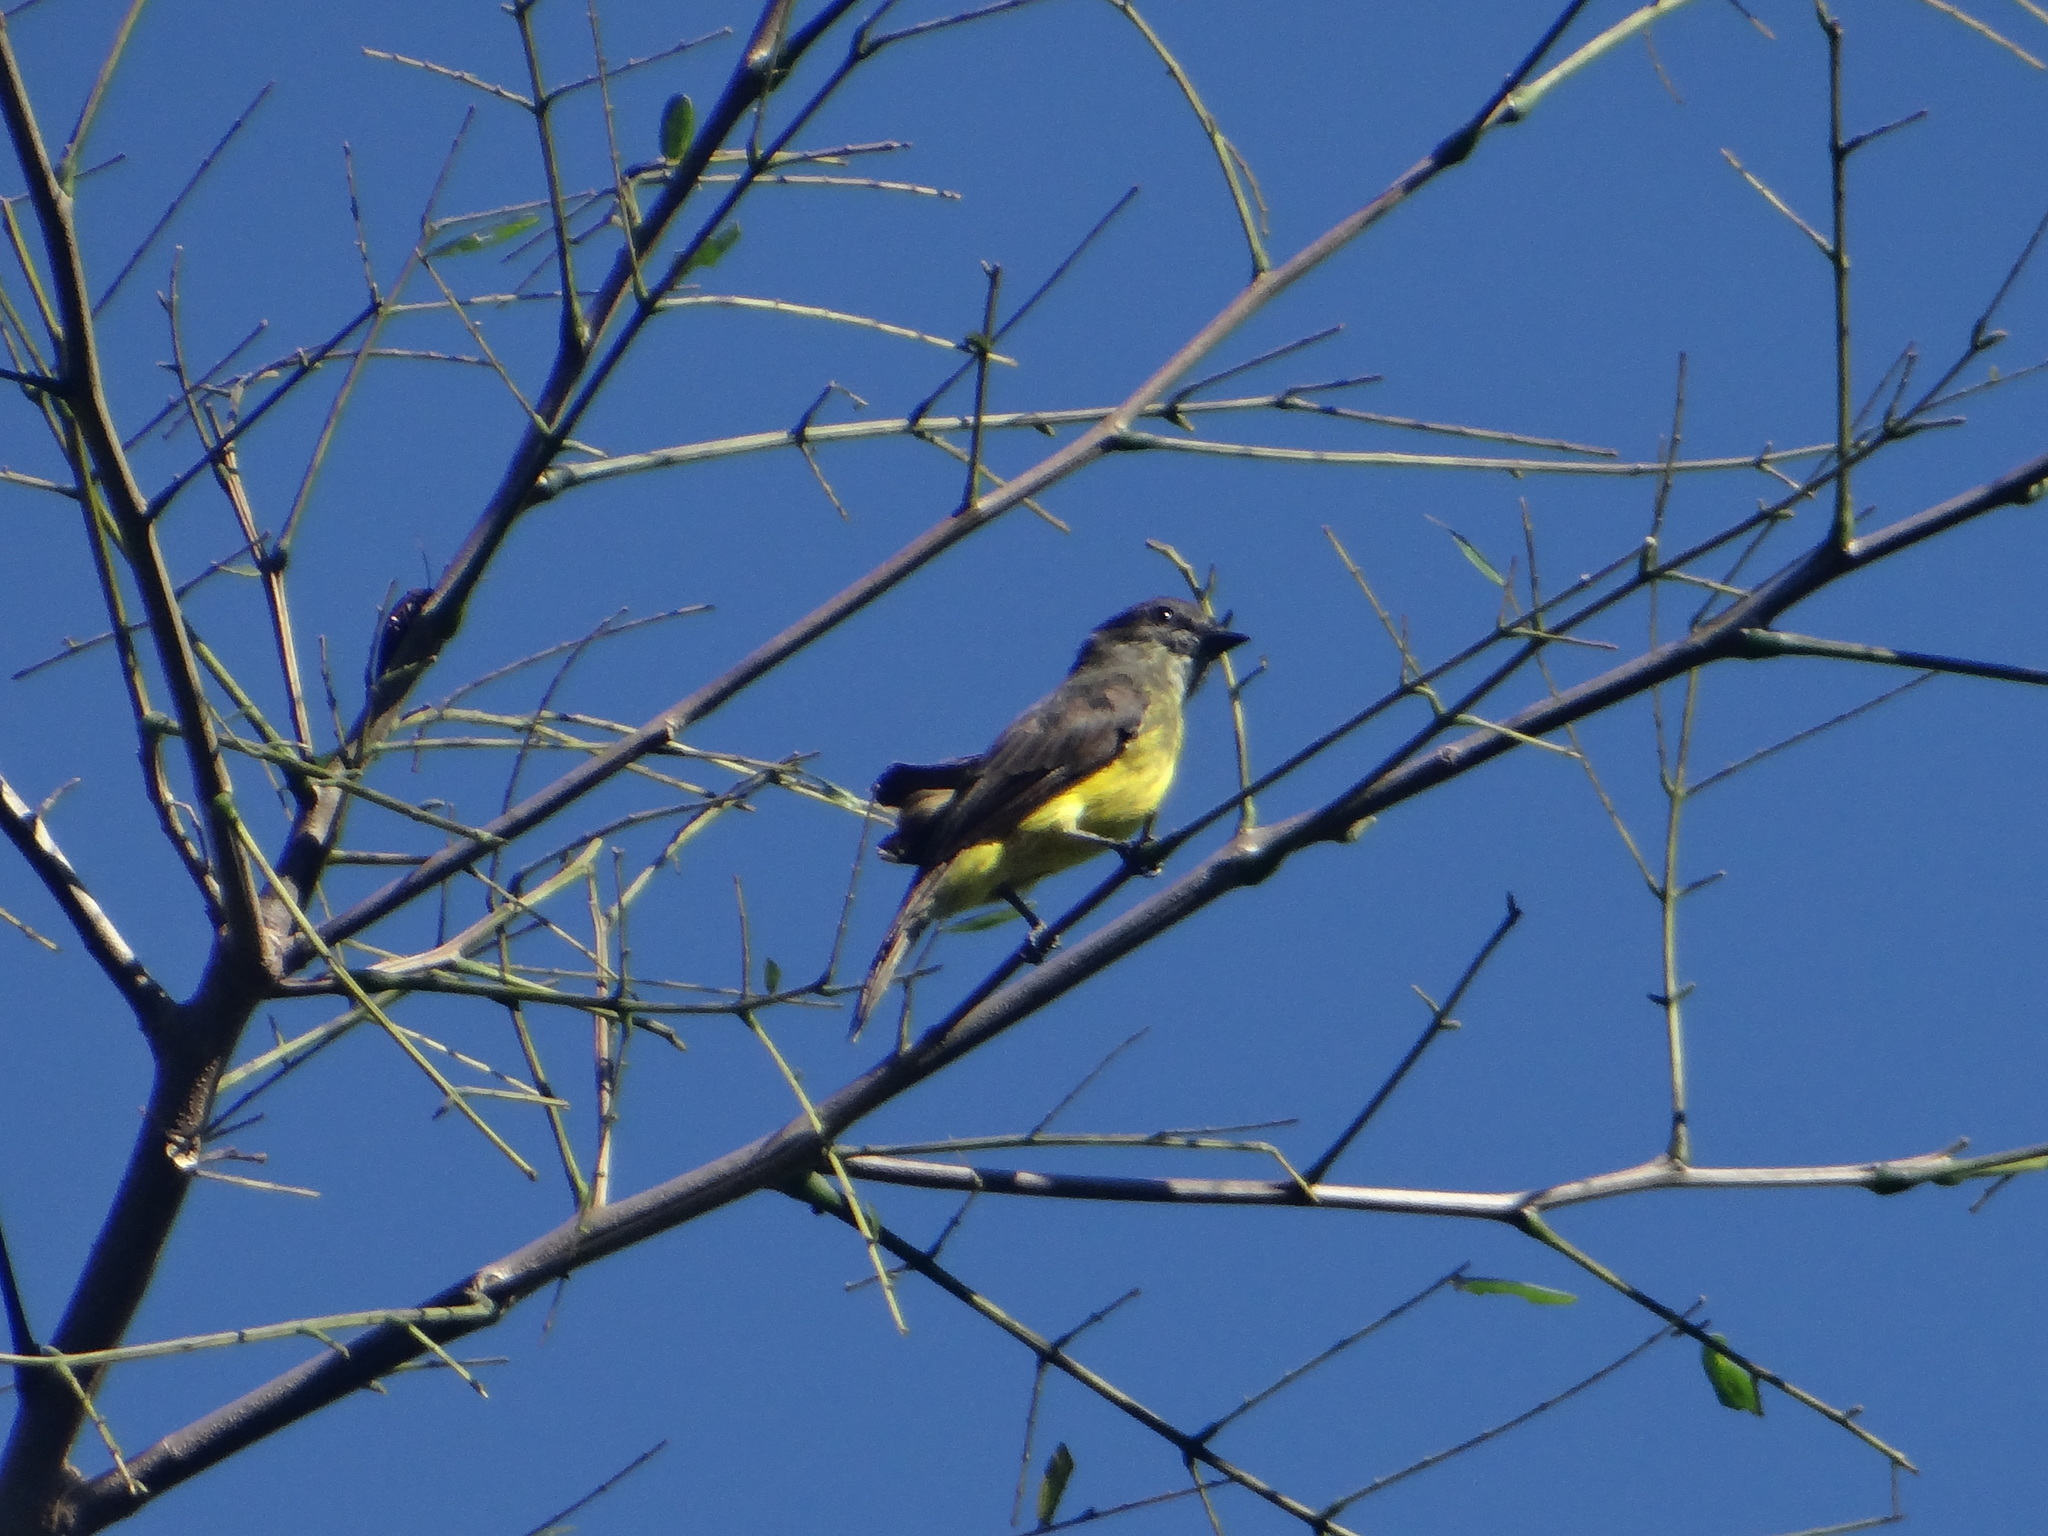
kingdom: Animalia
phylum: Chordata
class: Aves
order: Passeriformes
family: Tyrannidae
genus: Myiozetetes
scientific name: Myiozetetes luteiventris
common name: Dusky-chested flycatcher
